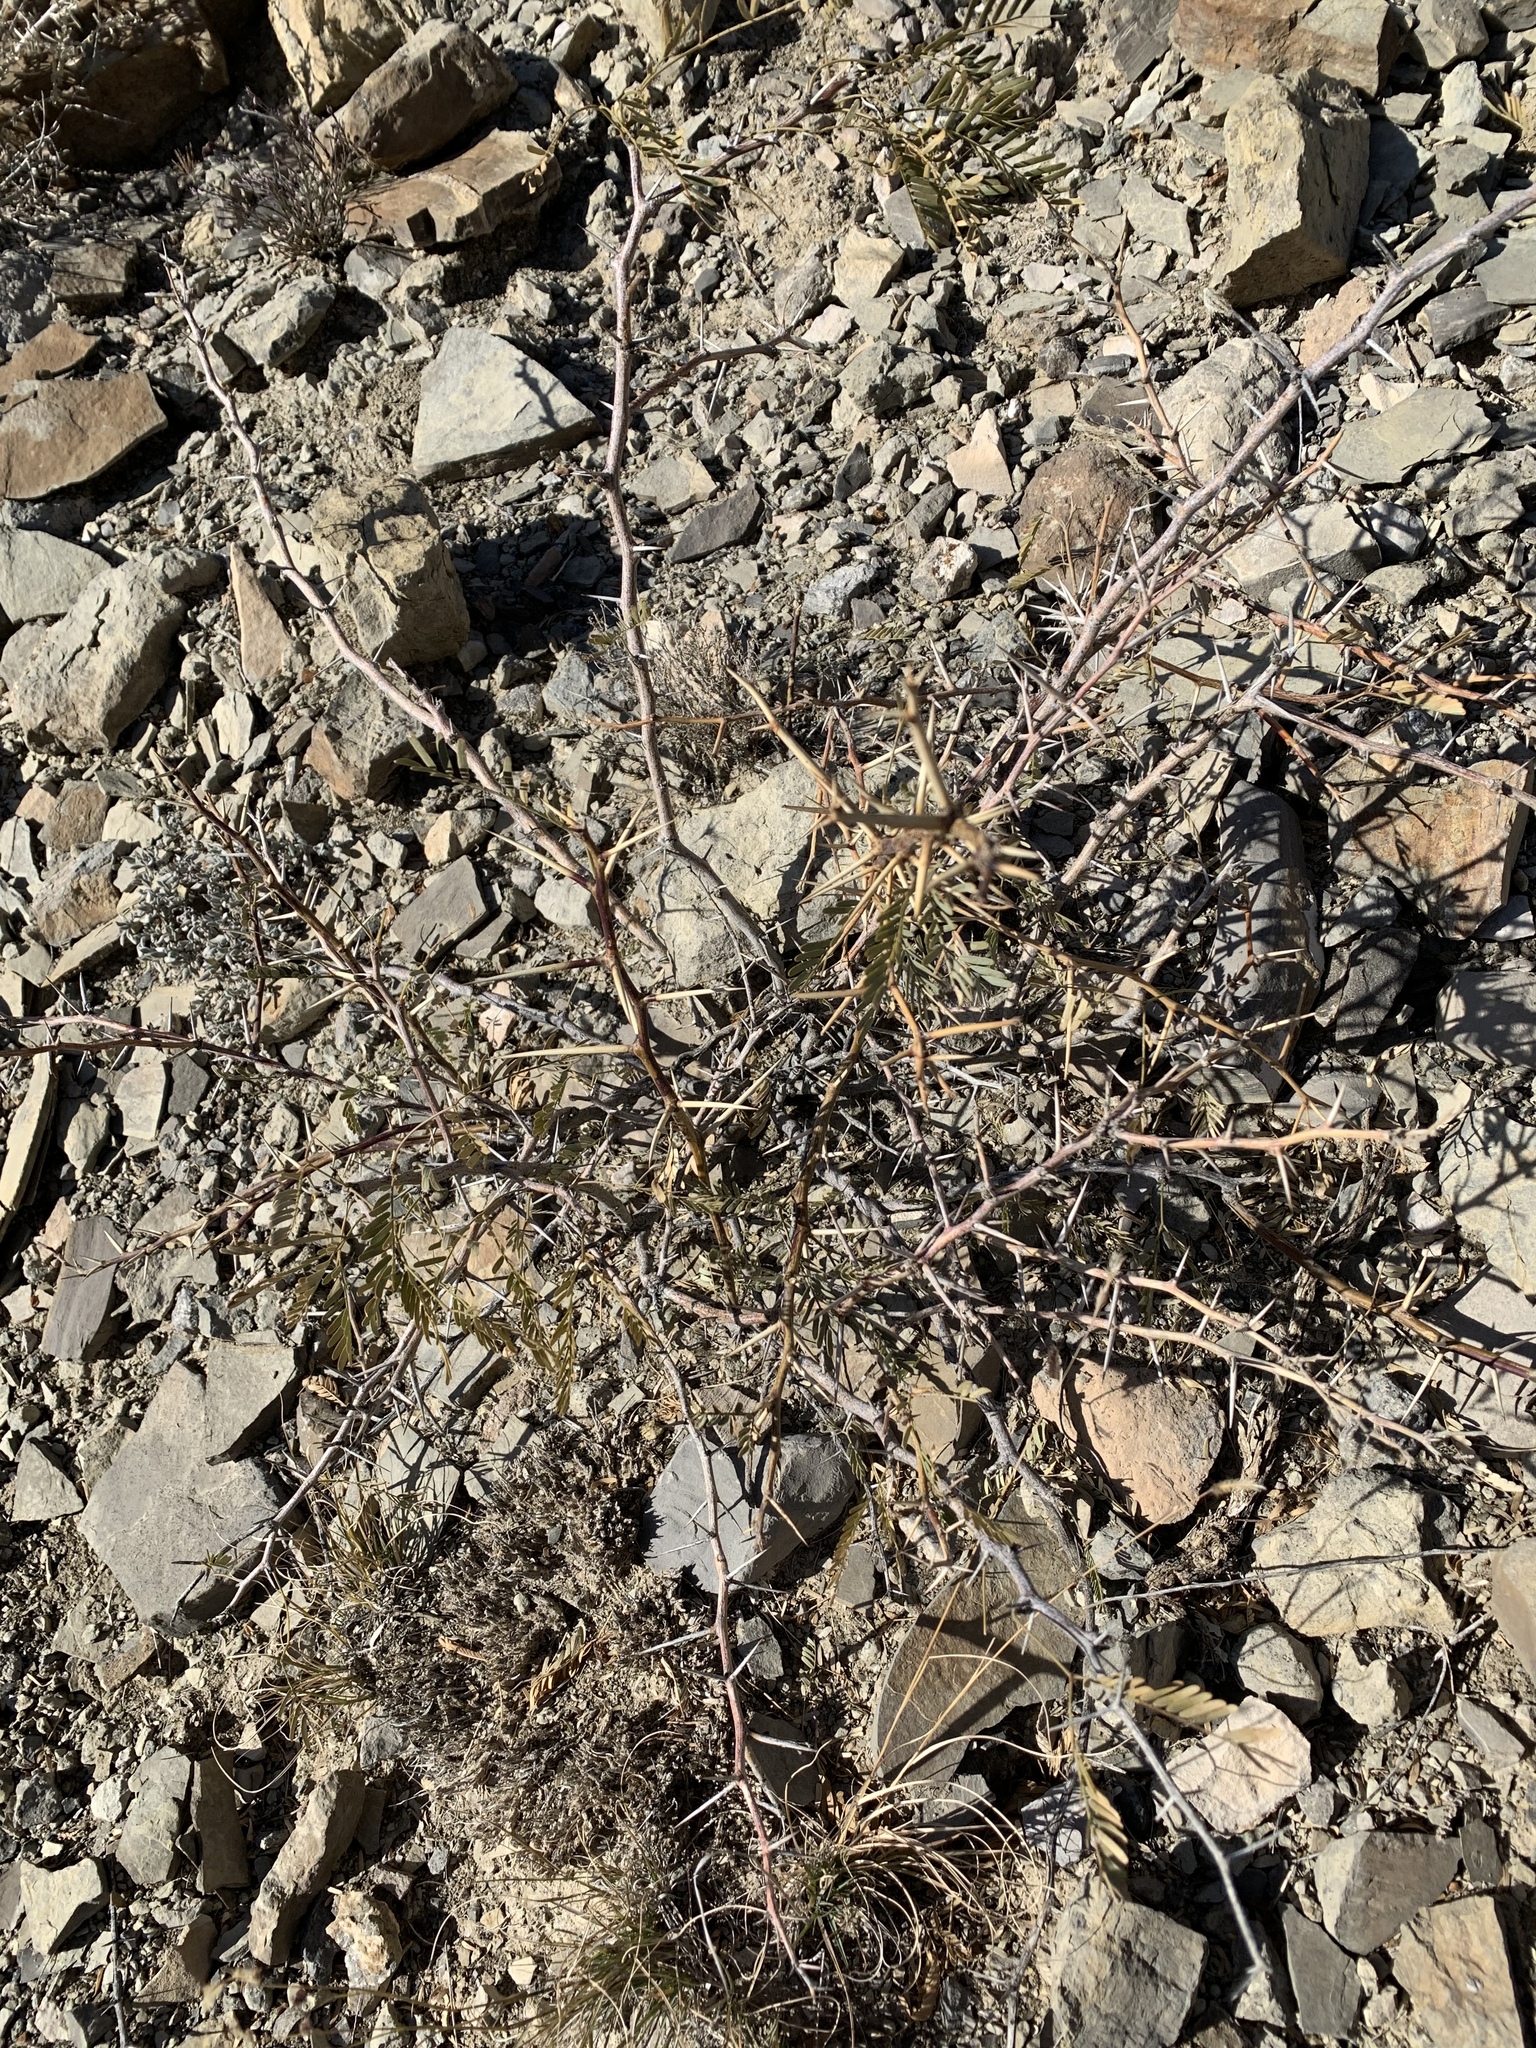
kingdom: Plantae
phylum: Tracheophyta
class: Magnoliopsida
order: Fabales
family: Fabaceae
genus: Prosopis
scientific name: Prosopis glandulosa
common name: Honey mesquite
